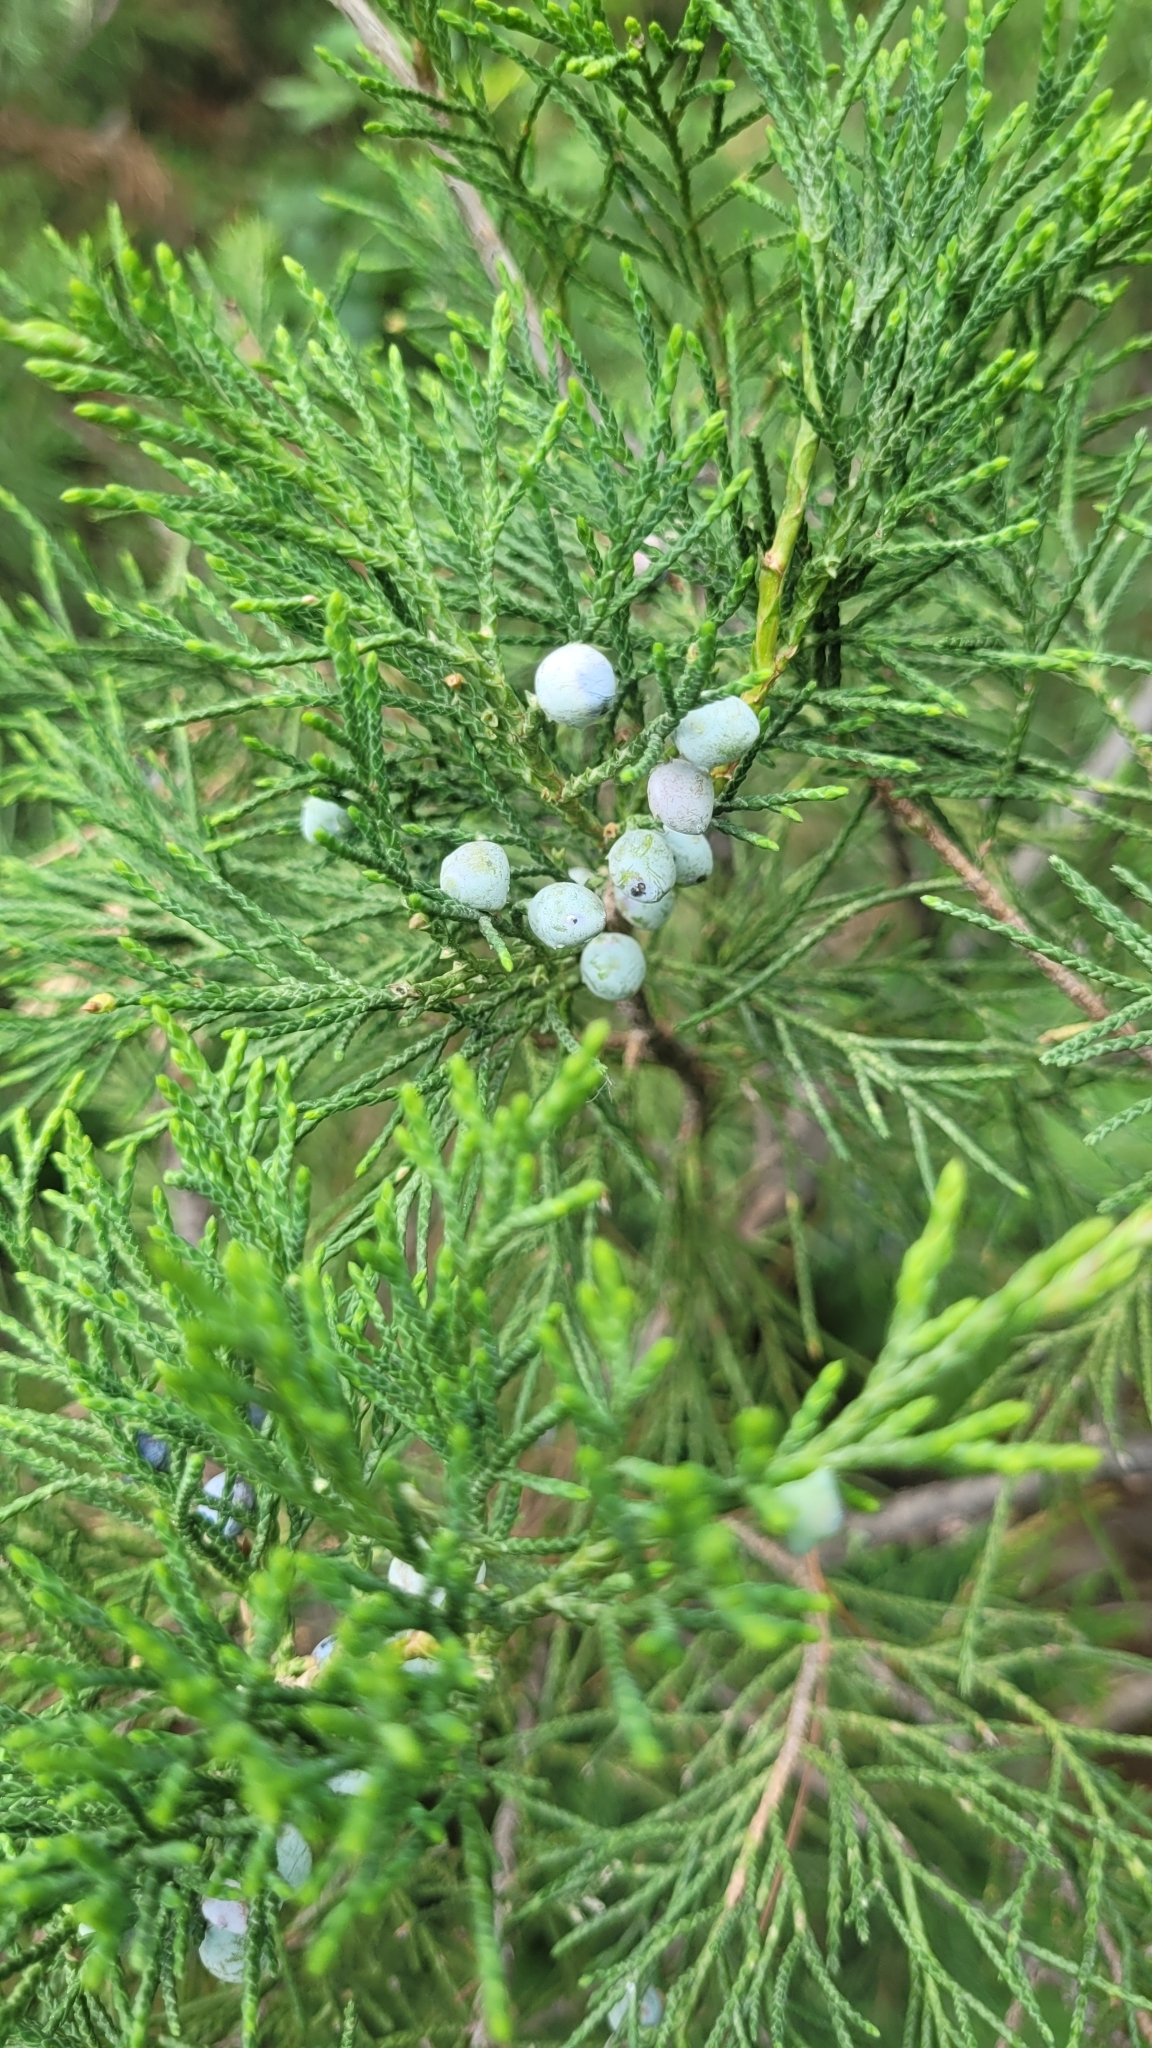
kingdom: Plantae
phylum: Tracheophyta
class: Pinopsida
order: Pinales
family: Cupressaceae
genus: Juniperus
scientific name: Juniperus sabina
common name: Savin
